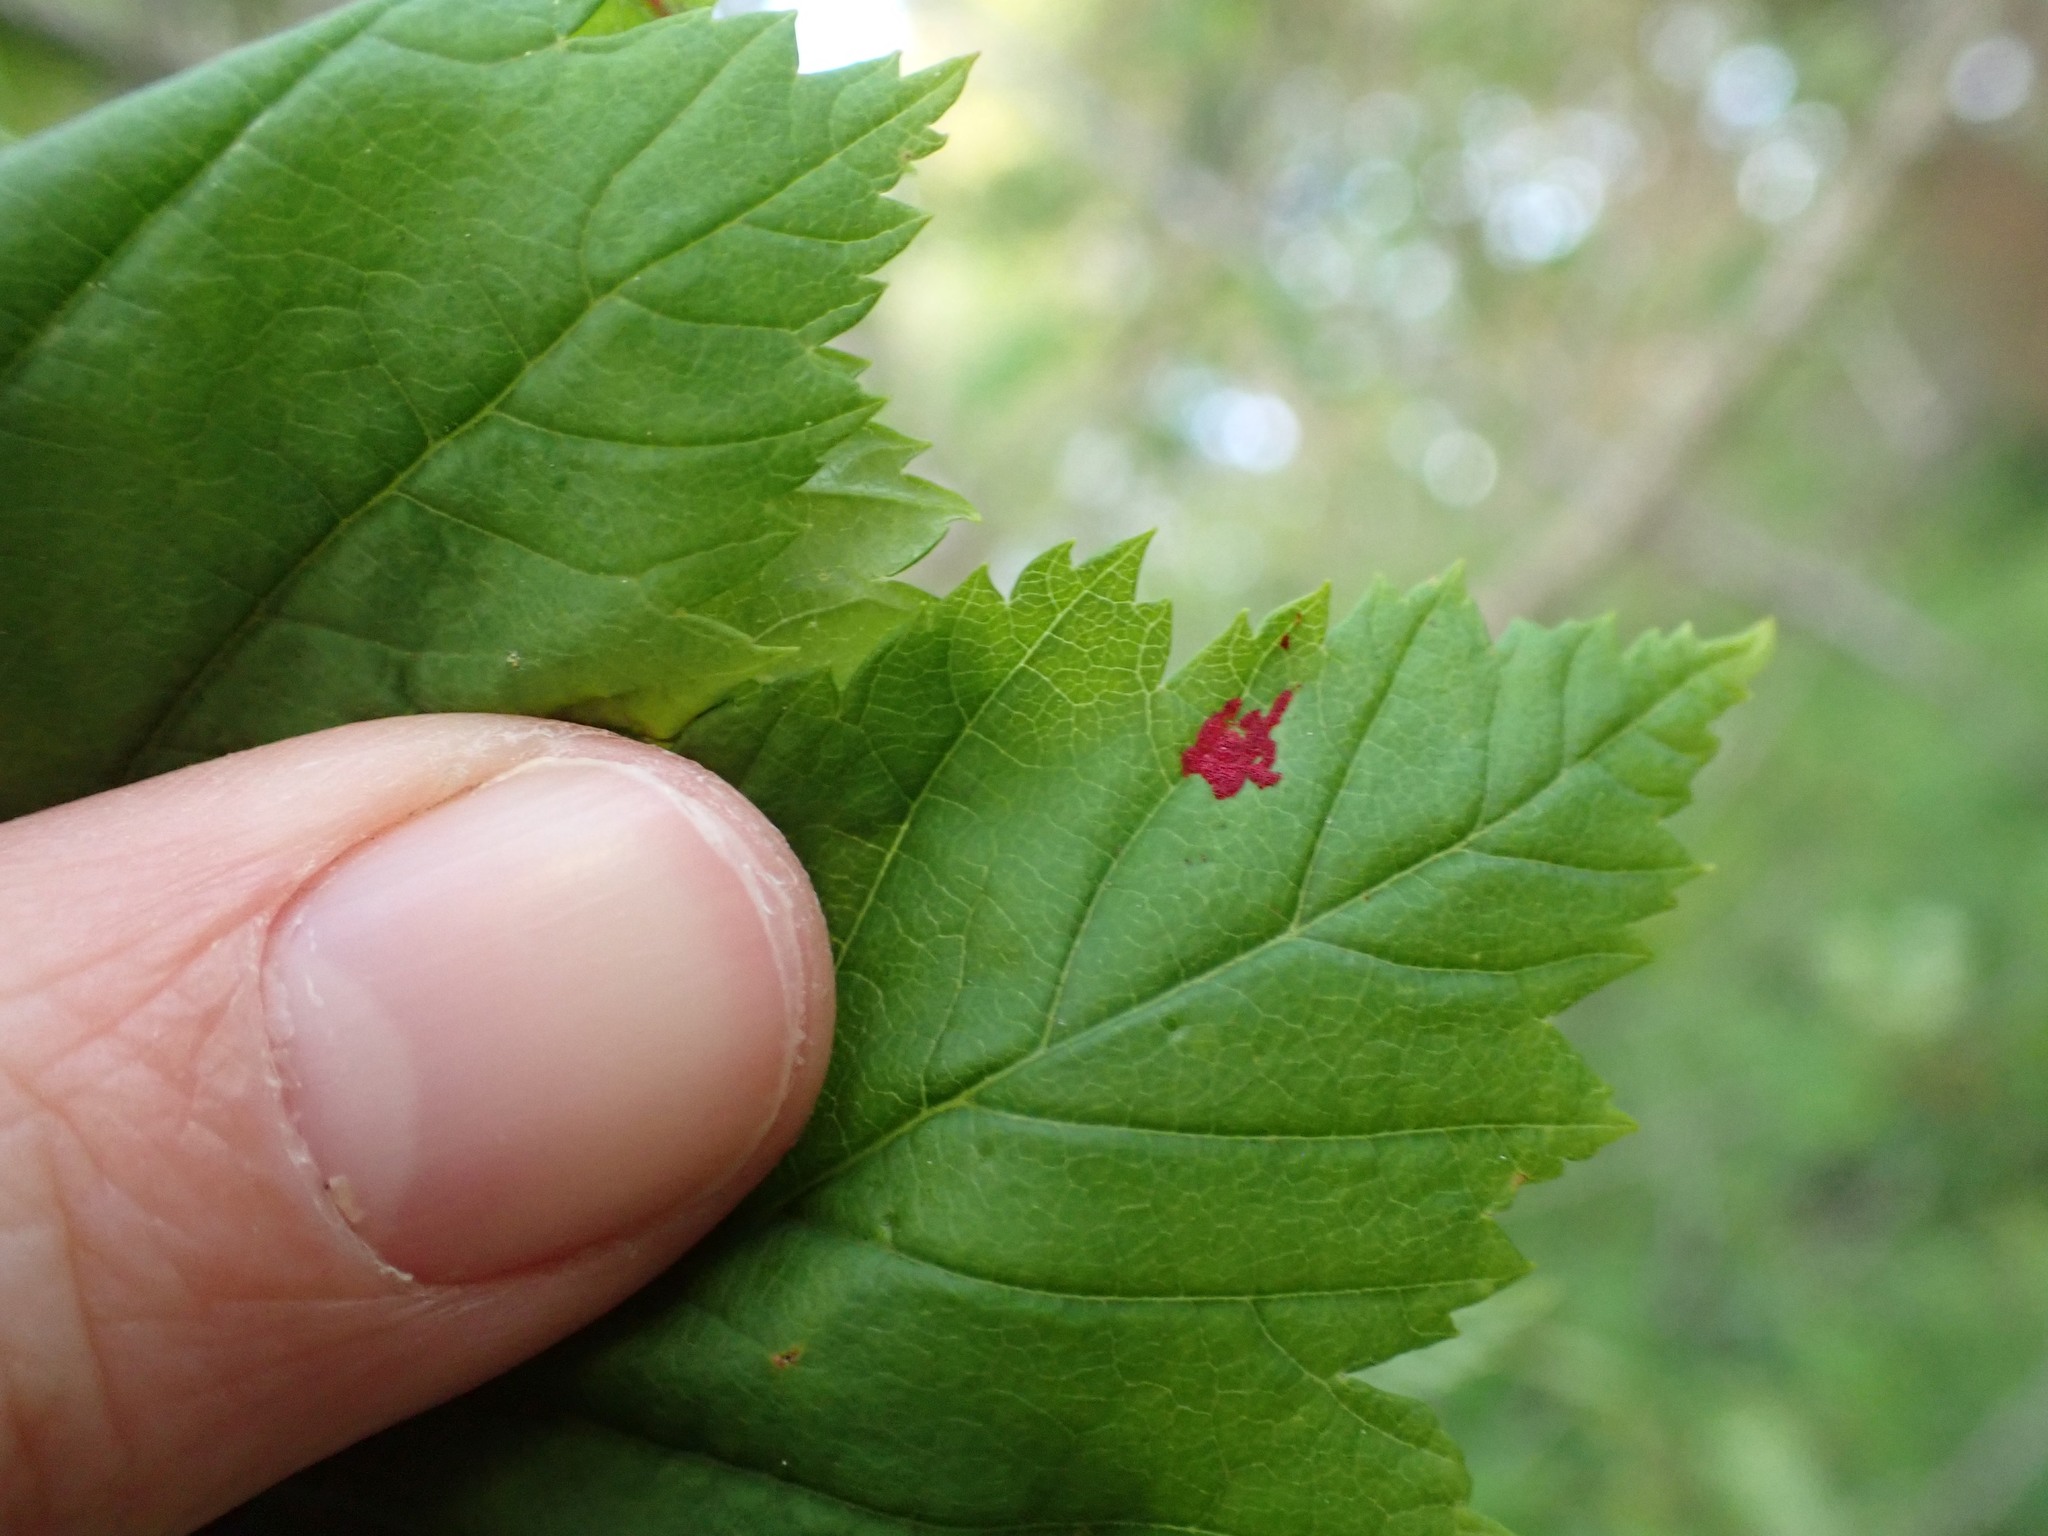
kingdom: Animalia
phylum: Arthropoda
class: Arachnida
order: Trombidiformes
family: Eriophyidae
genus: Aceria
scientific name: Aceria
